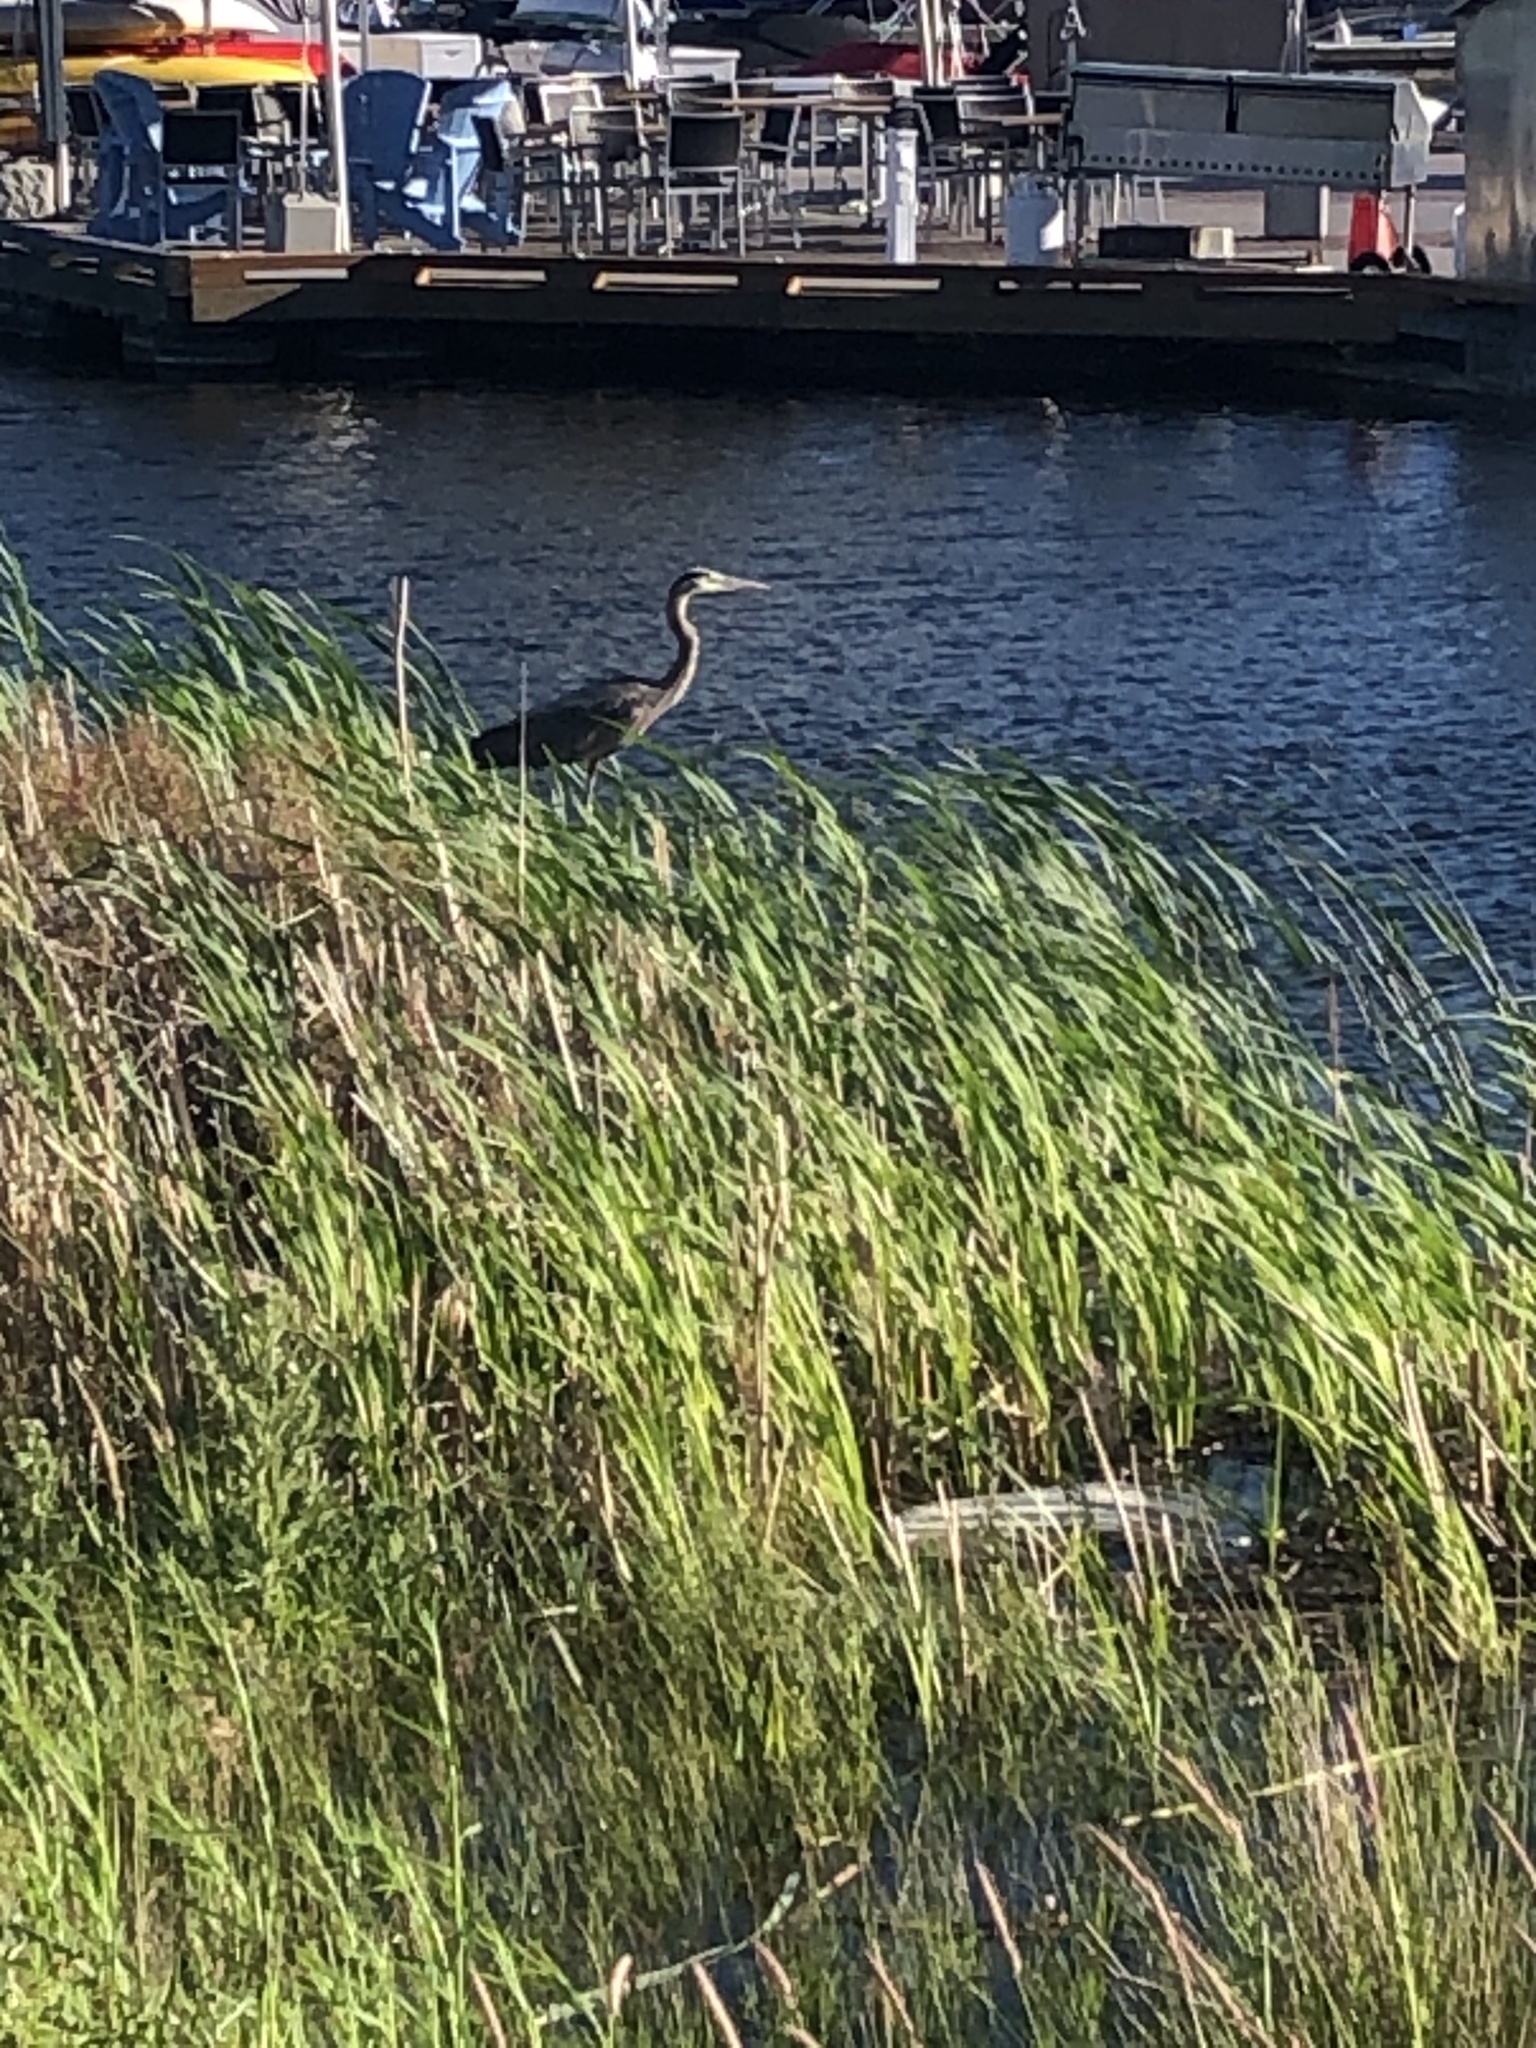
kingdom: Animalia
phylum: Chordata
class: Aves
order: Pelecaniformes
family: Ardeidae
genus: Ardea
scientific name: Ardea herodias
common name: Great blue heron
